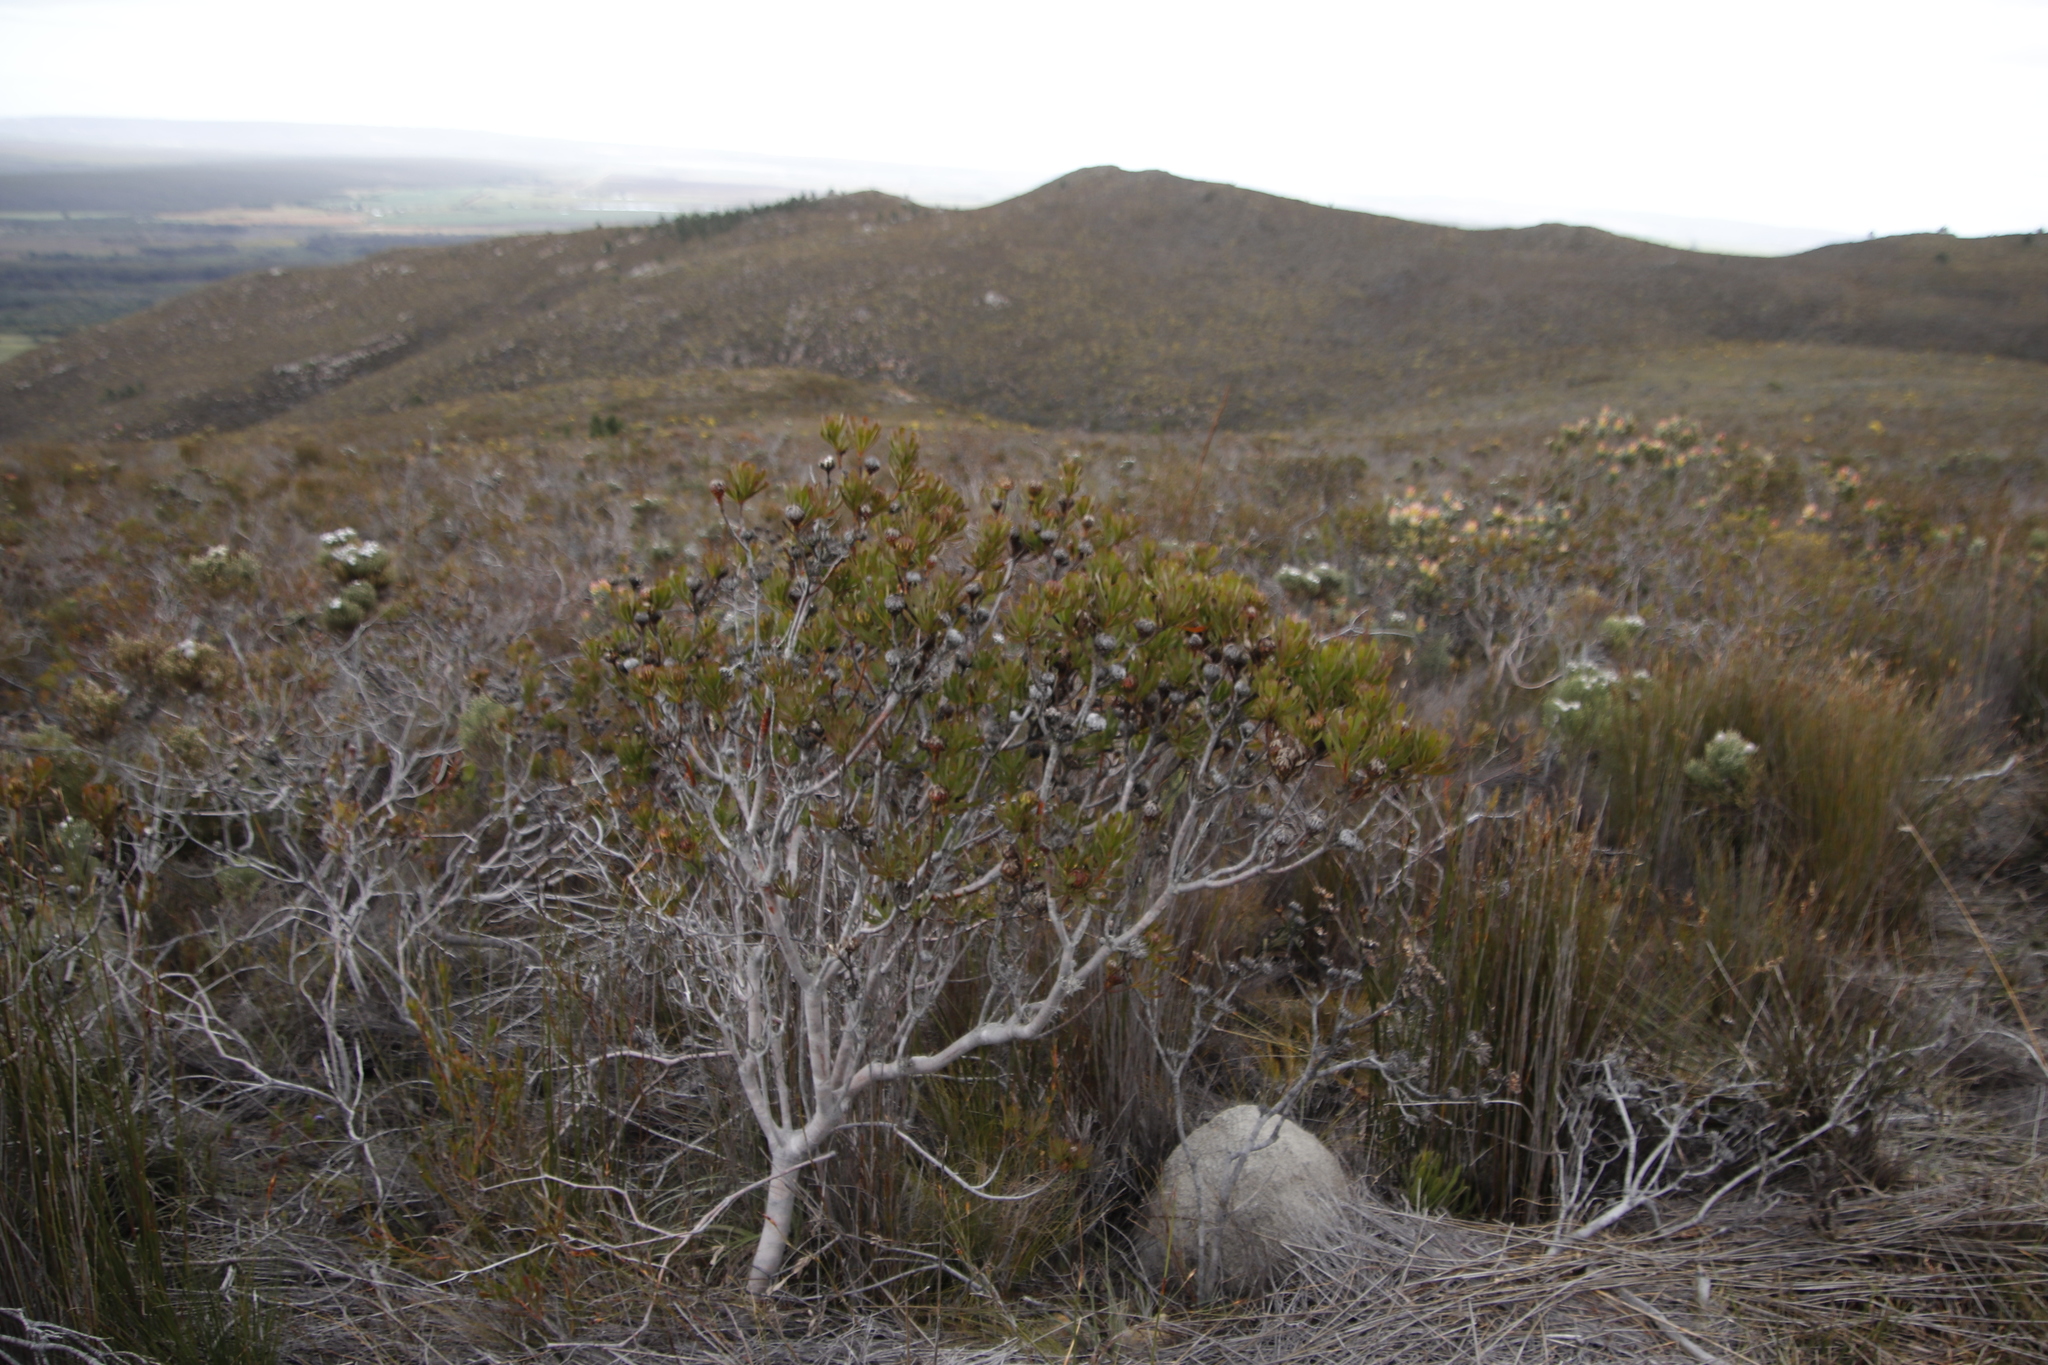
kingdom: Plantae
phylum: Tracheophyta
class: Magnoliopsida
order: Proteales
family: Proteaceae
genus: Aulax
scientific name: Aulax umbellata
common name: Broad-leaf featherbush
